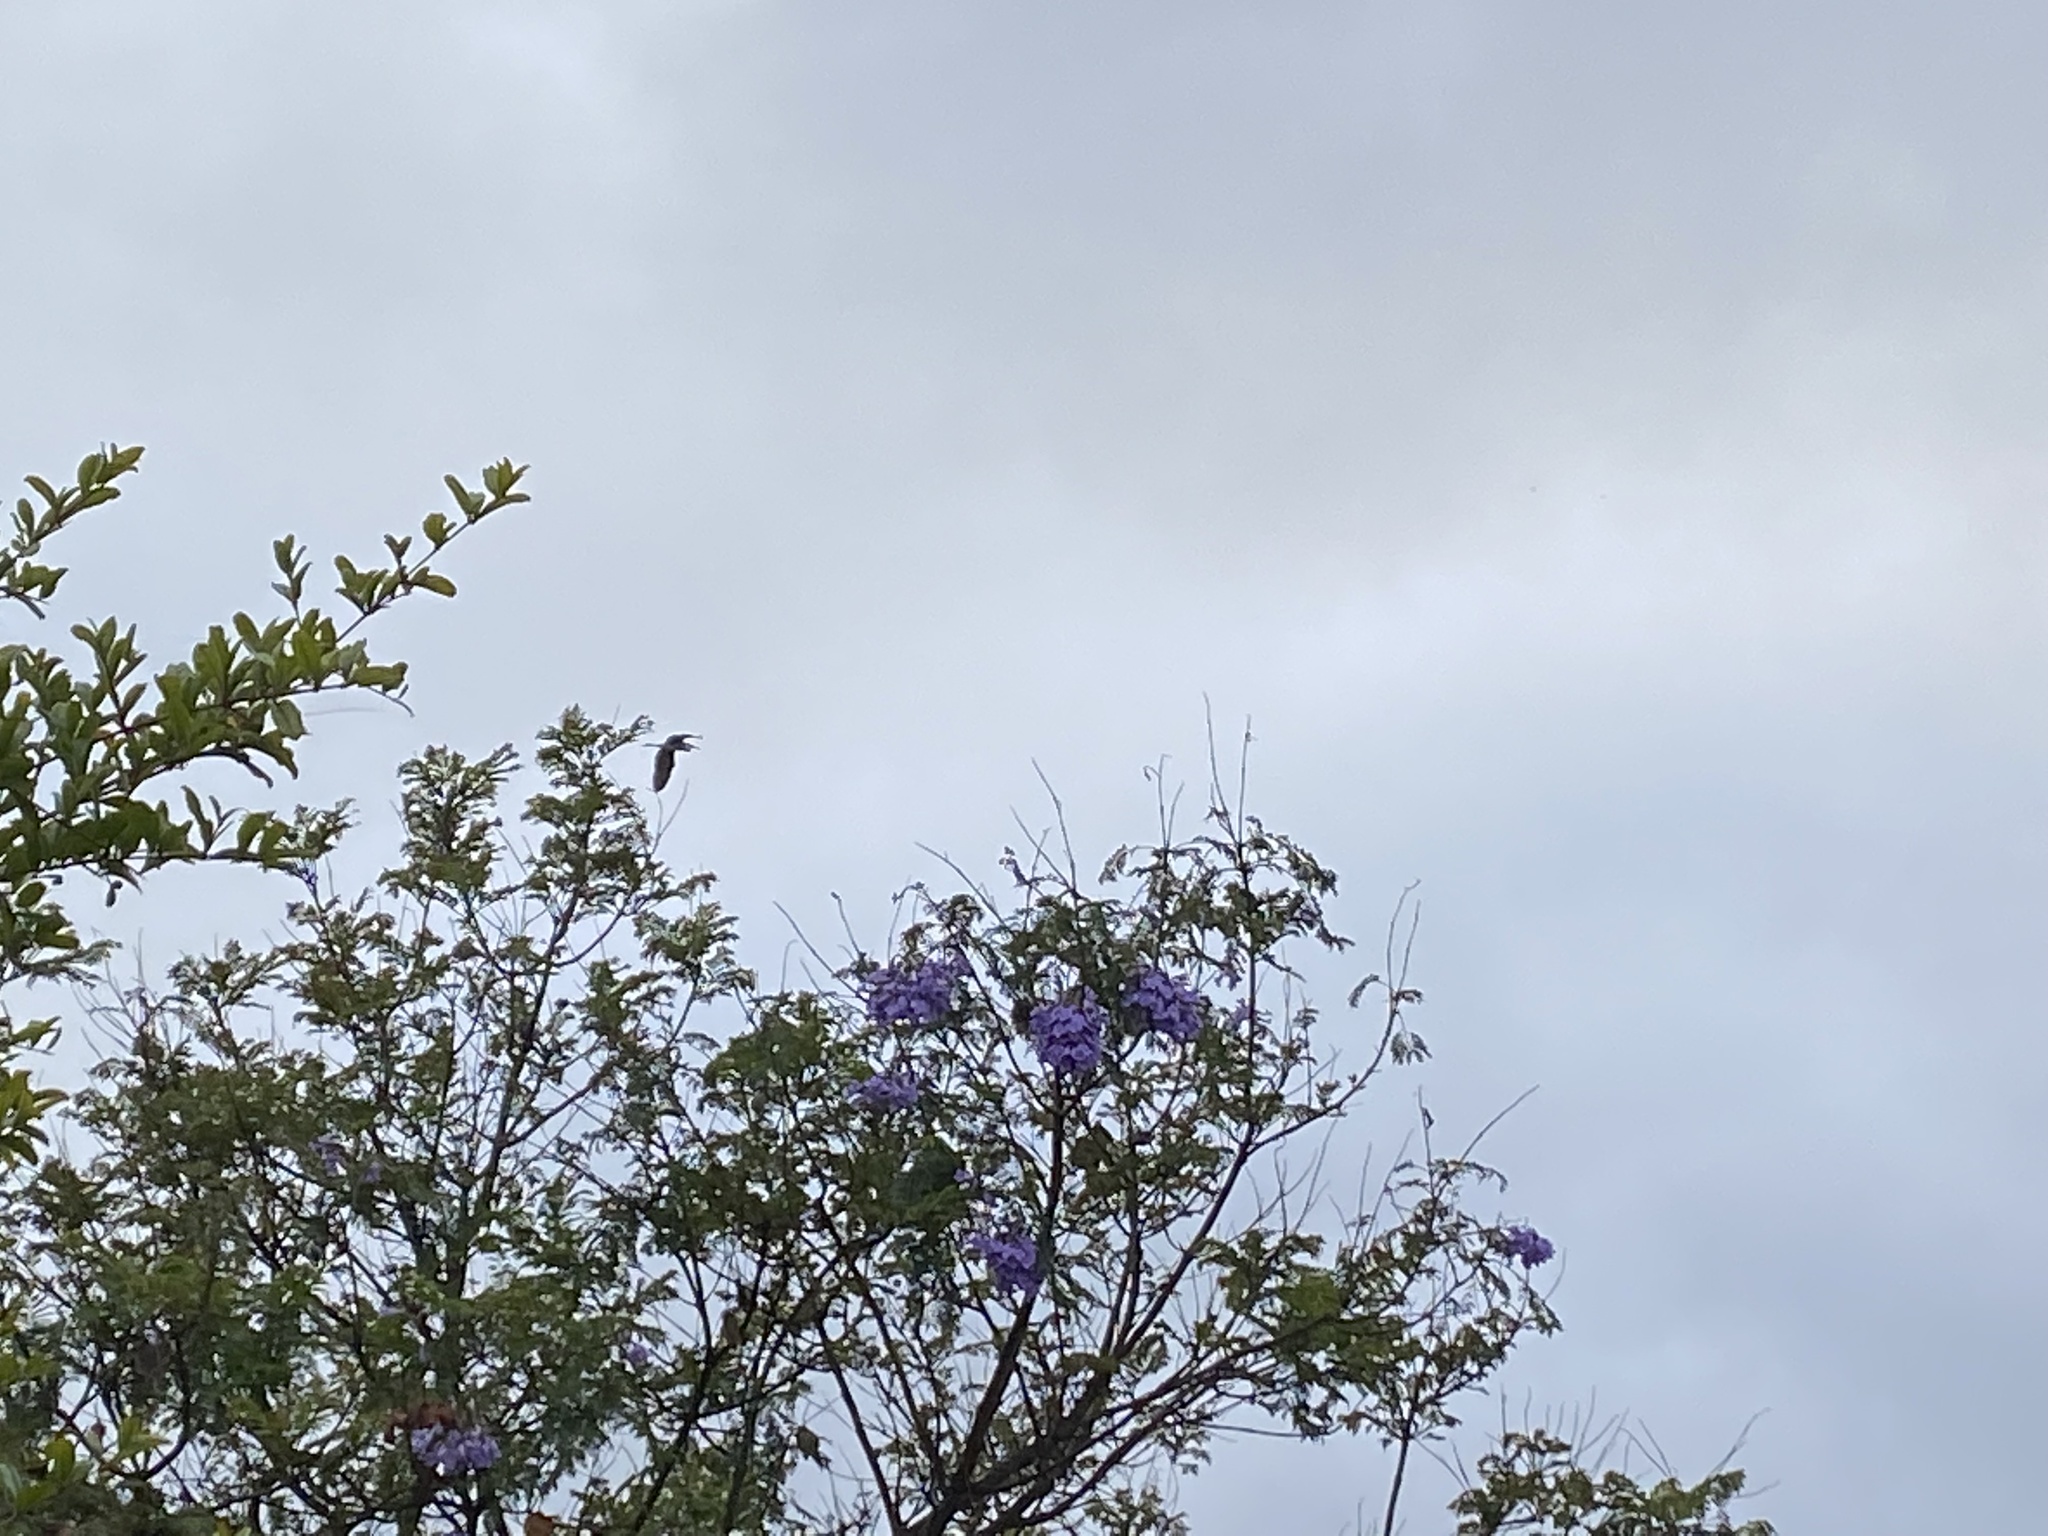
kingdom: Animalia
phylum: Chordata
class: Aves
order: Pelecaniformes
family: Ardeidae
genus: Ardea
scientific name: Ardea herodias
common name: Great blue heron
